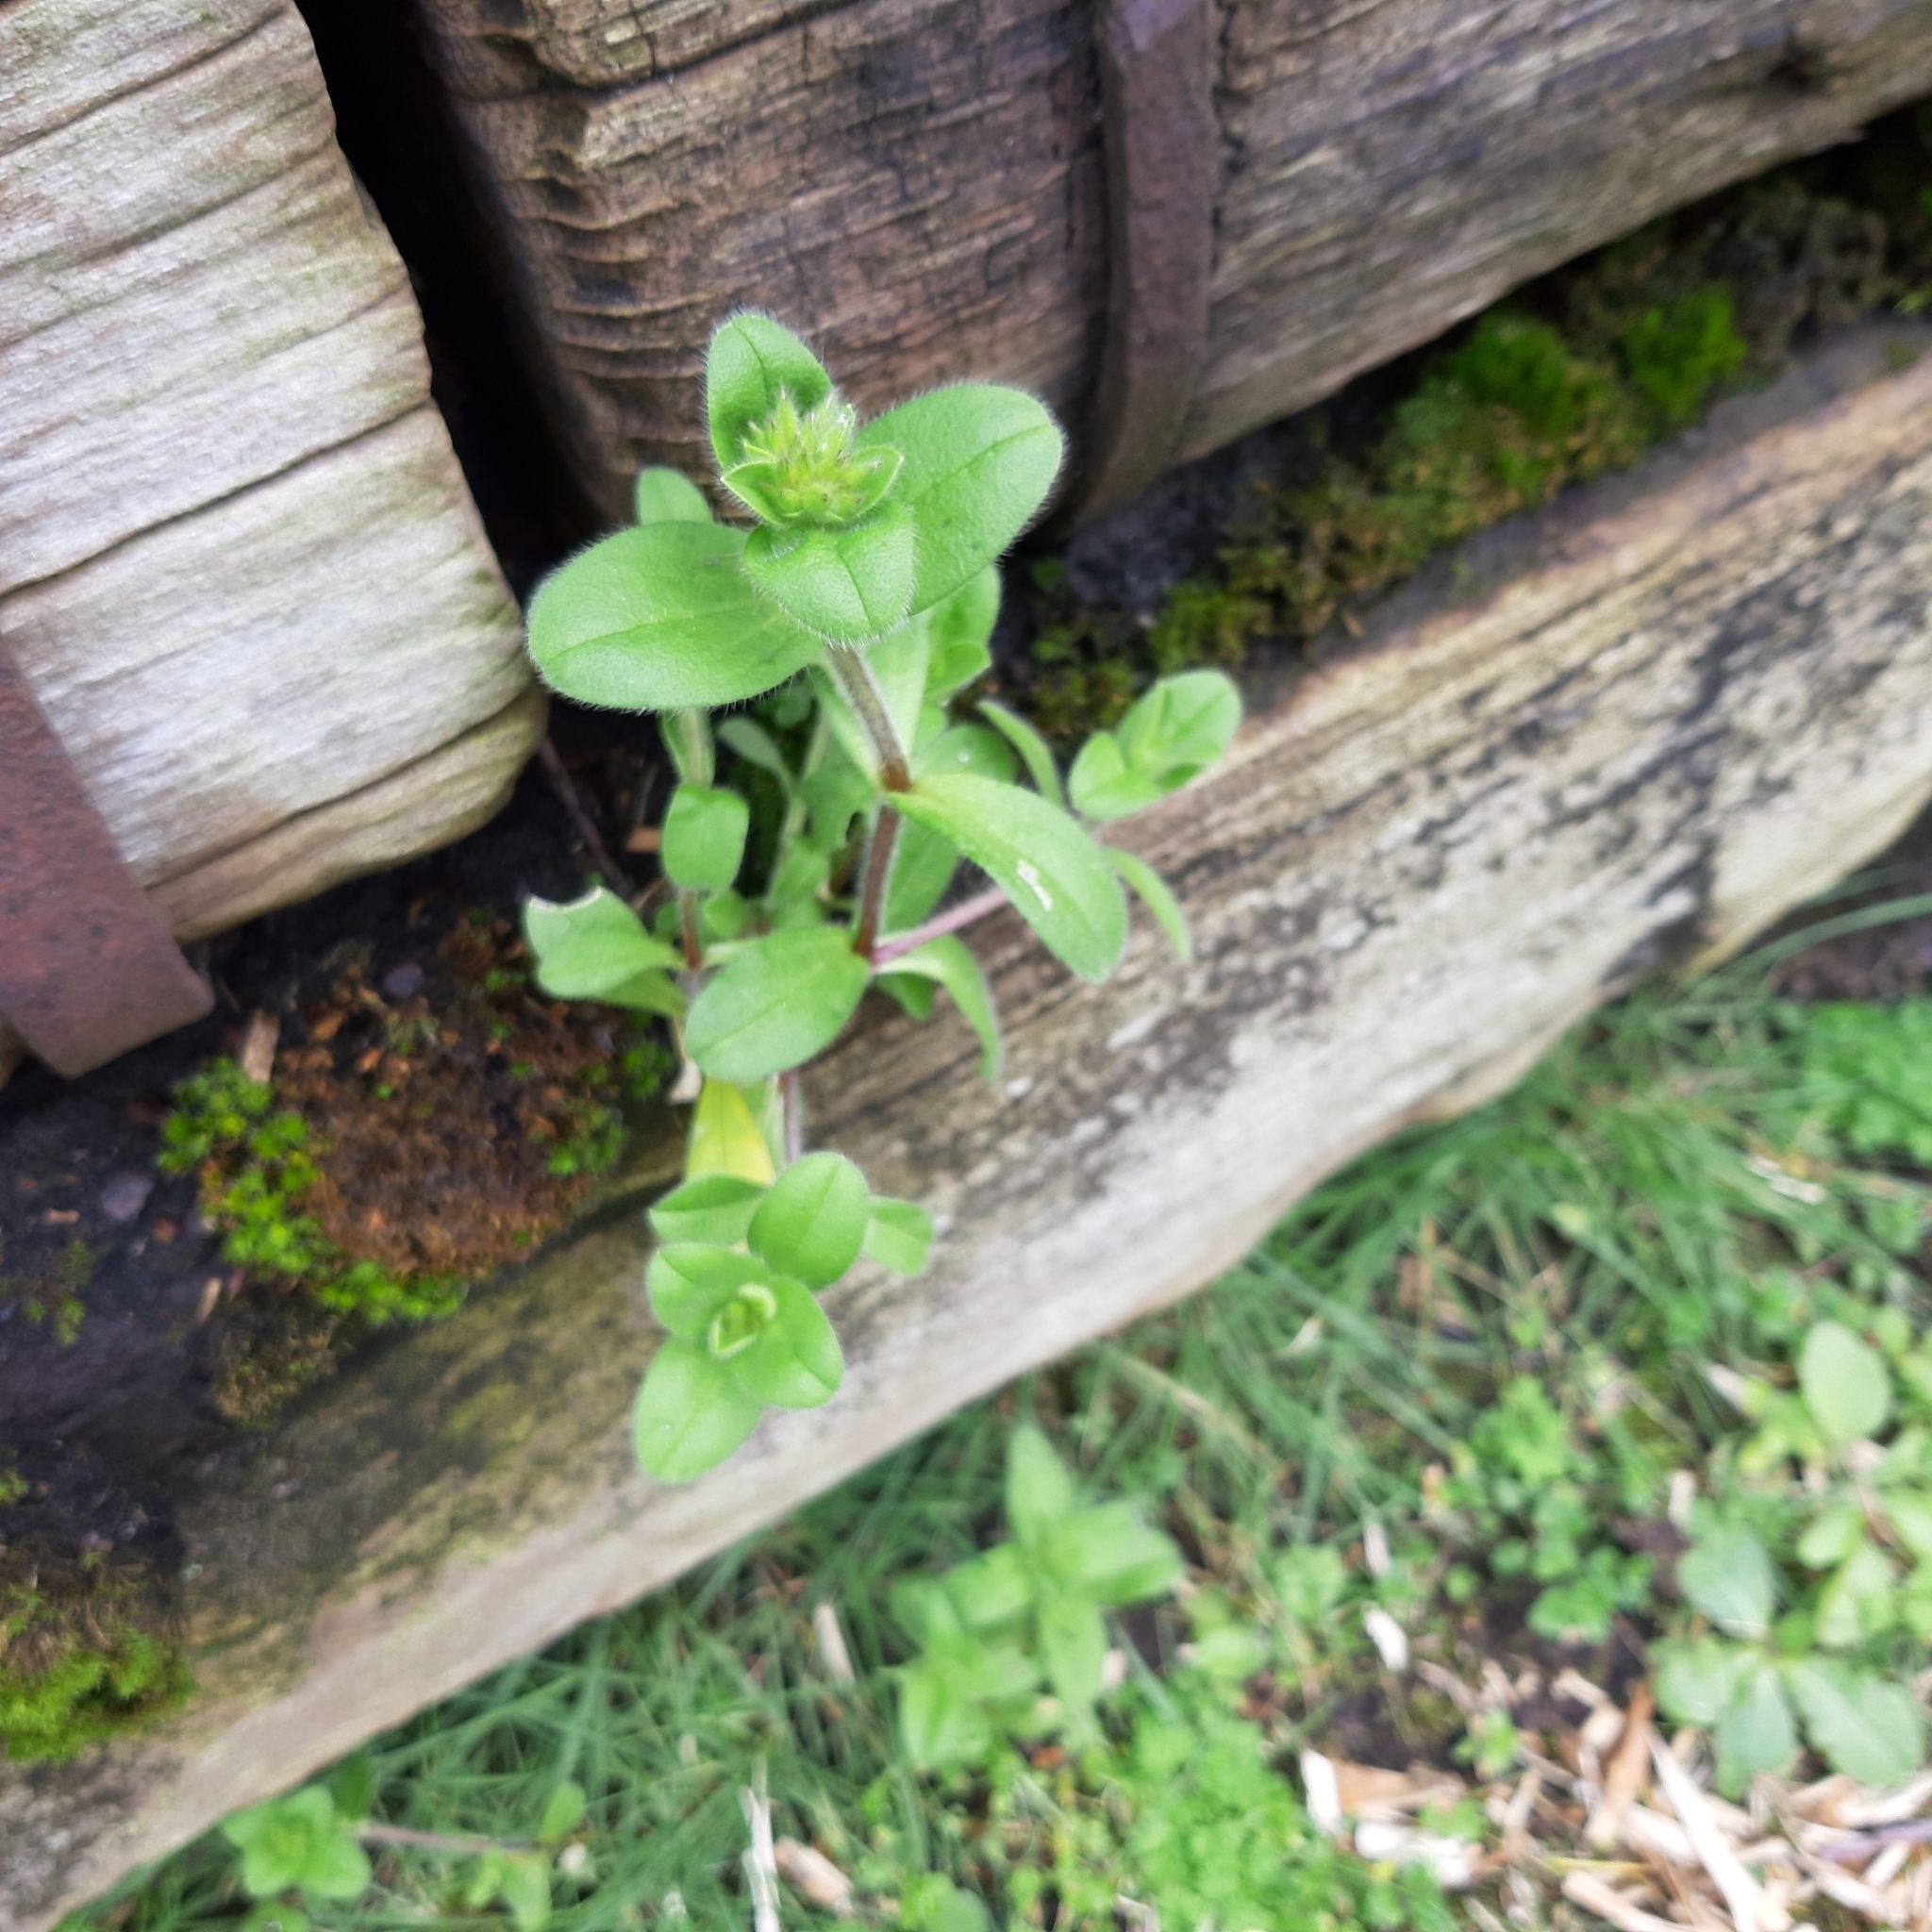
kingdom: Plantae
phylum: Tracheophyta
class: Magnoliopsida
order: Caryophyllales
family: Caryophyllaceae
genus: Cerastium
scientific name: Cerastium glomeratum
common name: Sticky chickweed
